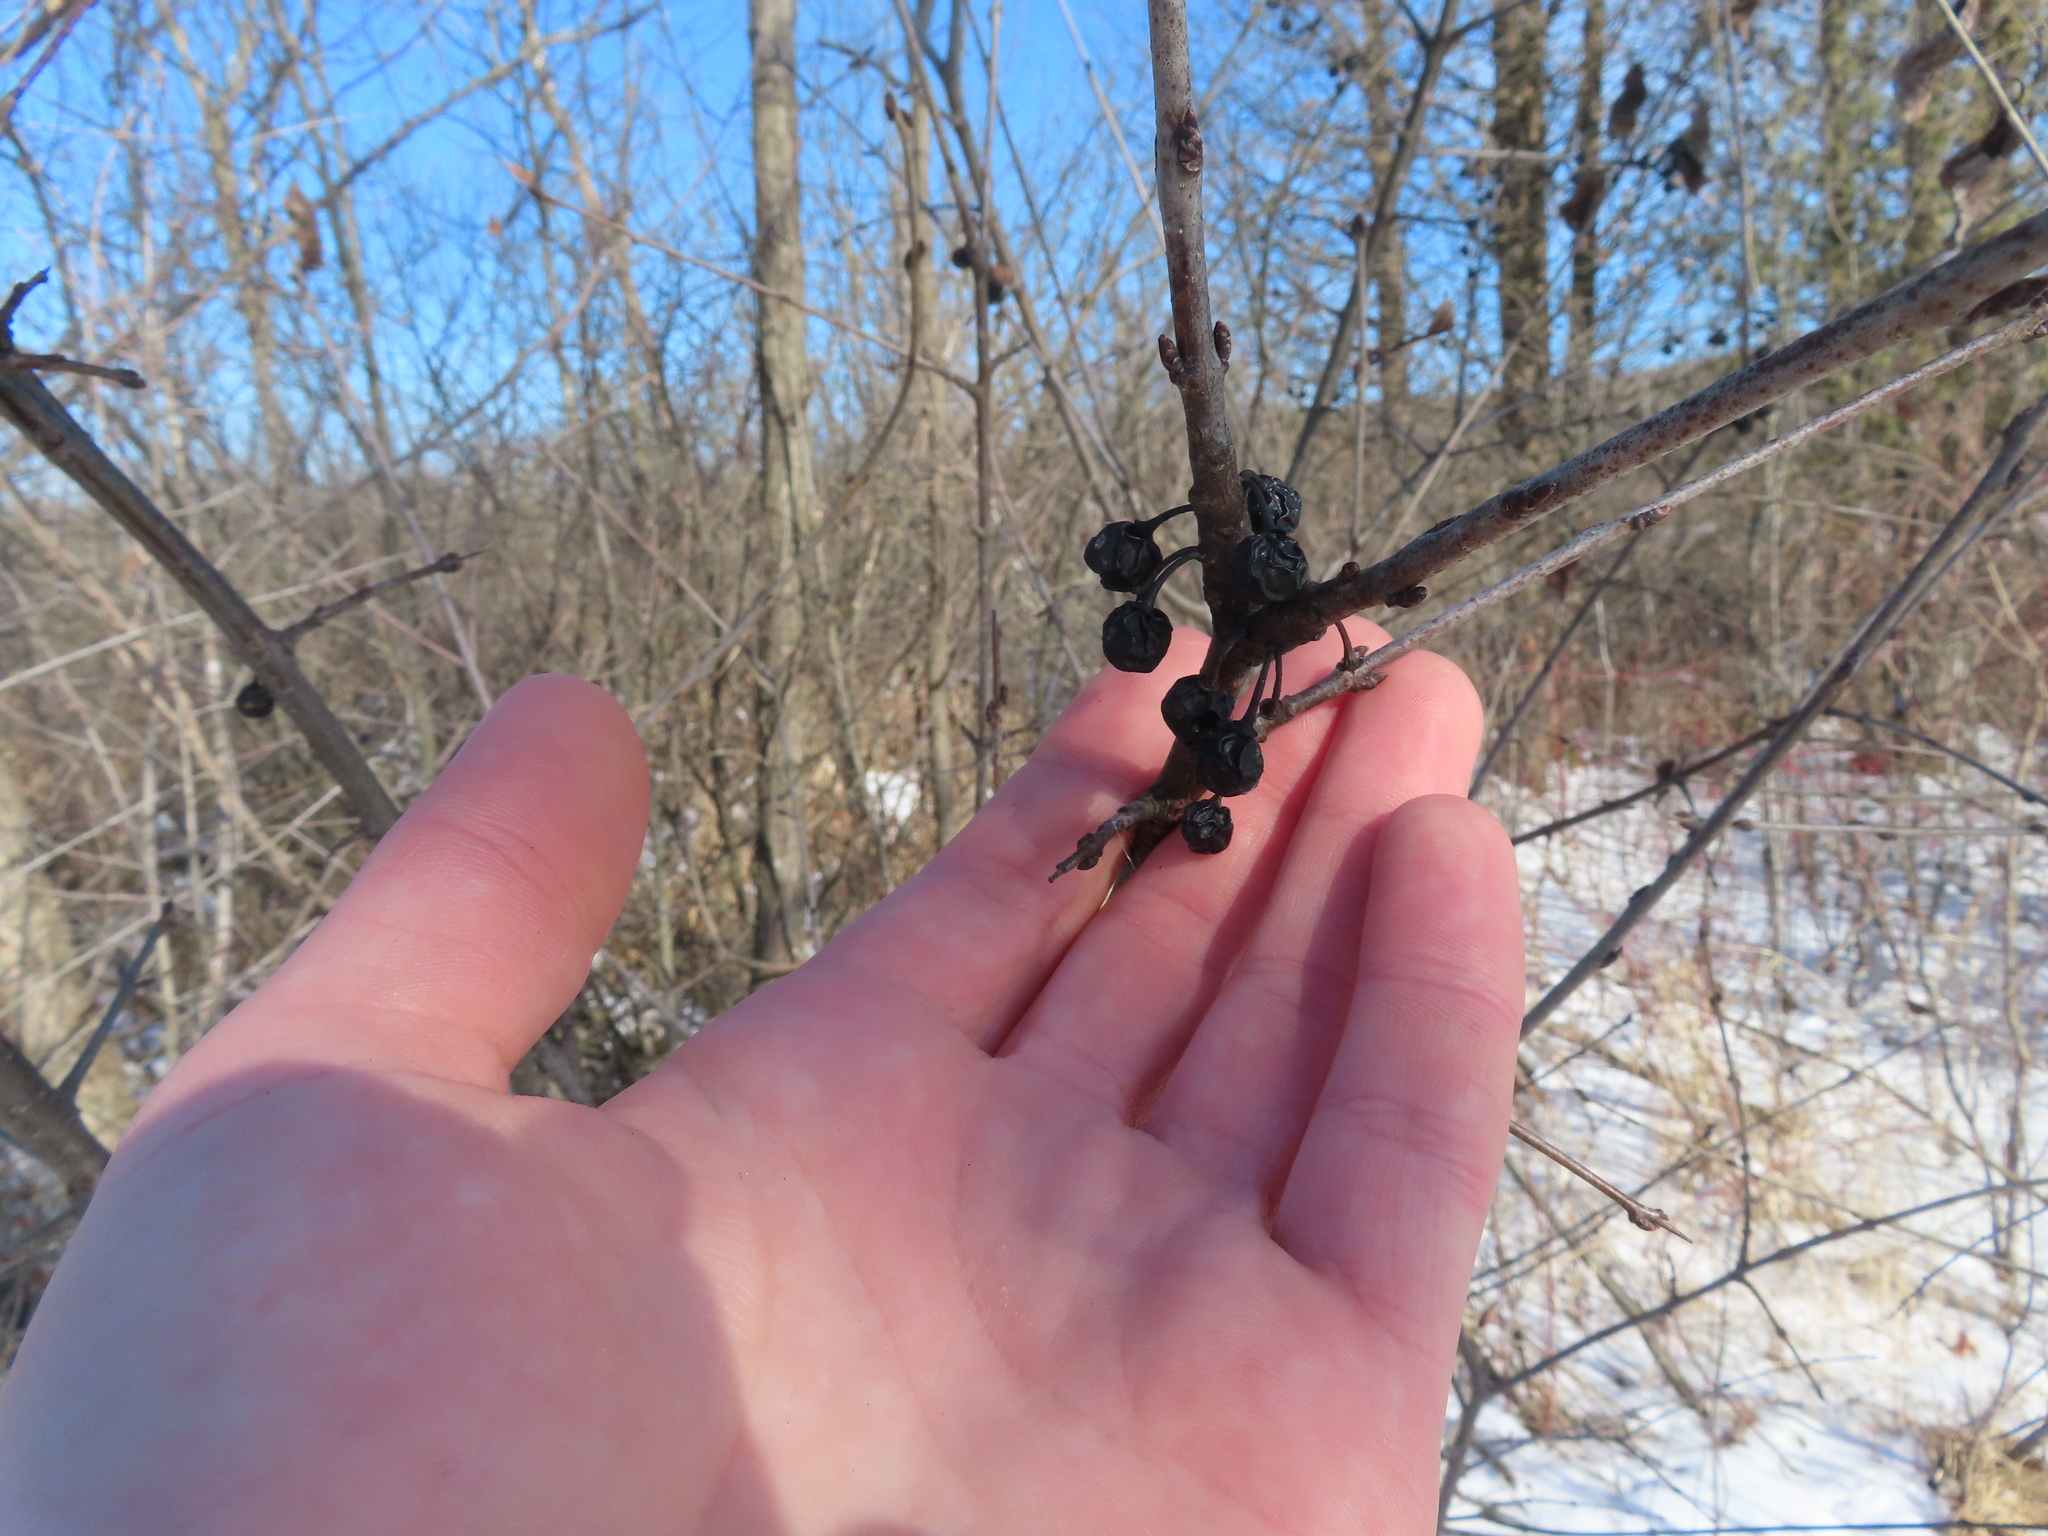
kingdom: Plantae
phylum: Tracheophyta
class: Magnoliopsida
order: Rosales
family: Rhamnaceae
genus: Rhamnus
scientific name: Rhamnus cathartica
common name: Common buckthorn
